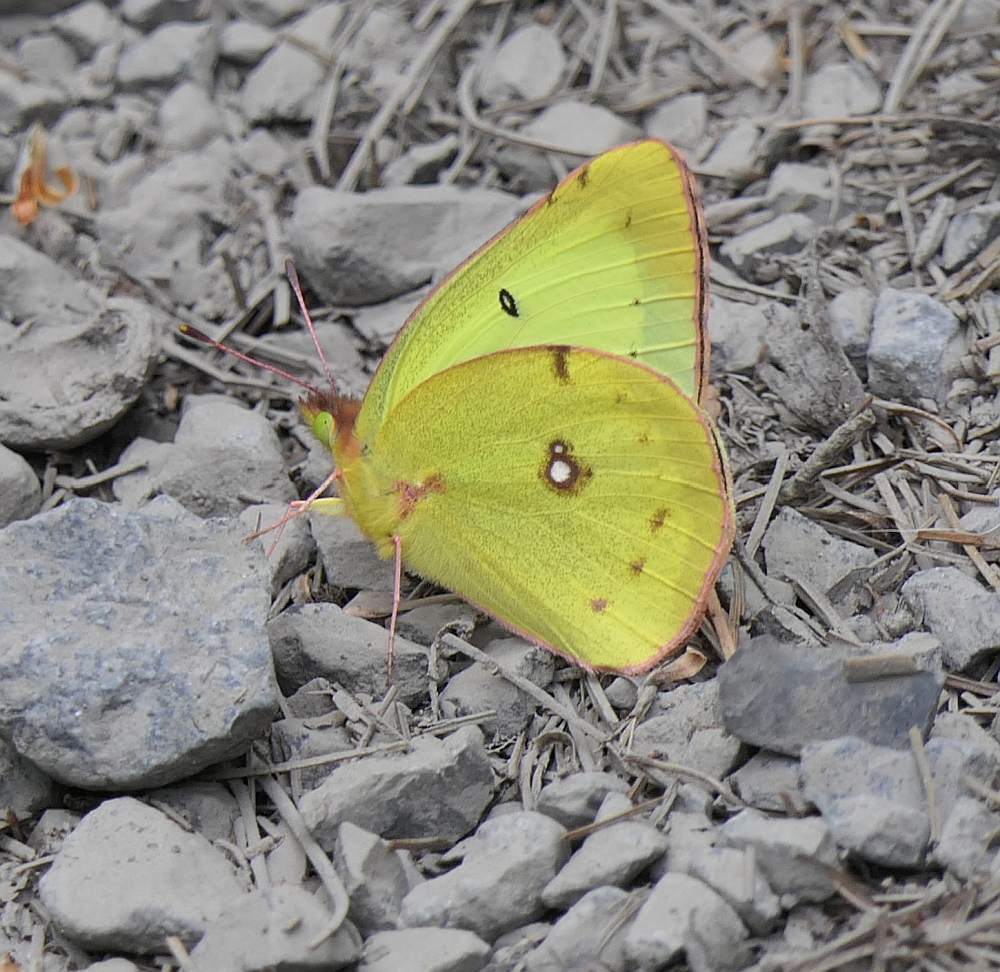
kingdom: Animalia
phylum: Arthropoda
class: Insecta
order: Lepidoptera
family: Pieridae
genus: Colias
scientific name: Colias philodice
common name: Clouded sulphur
